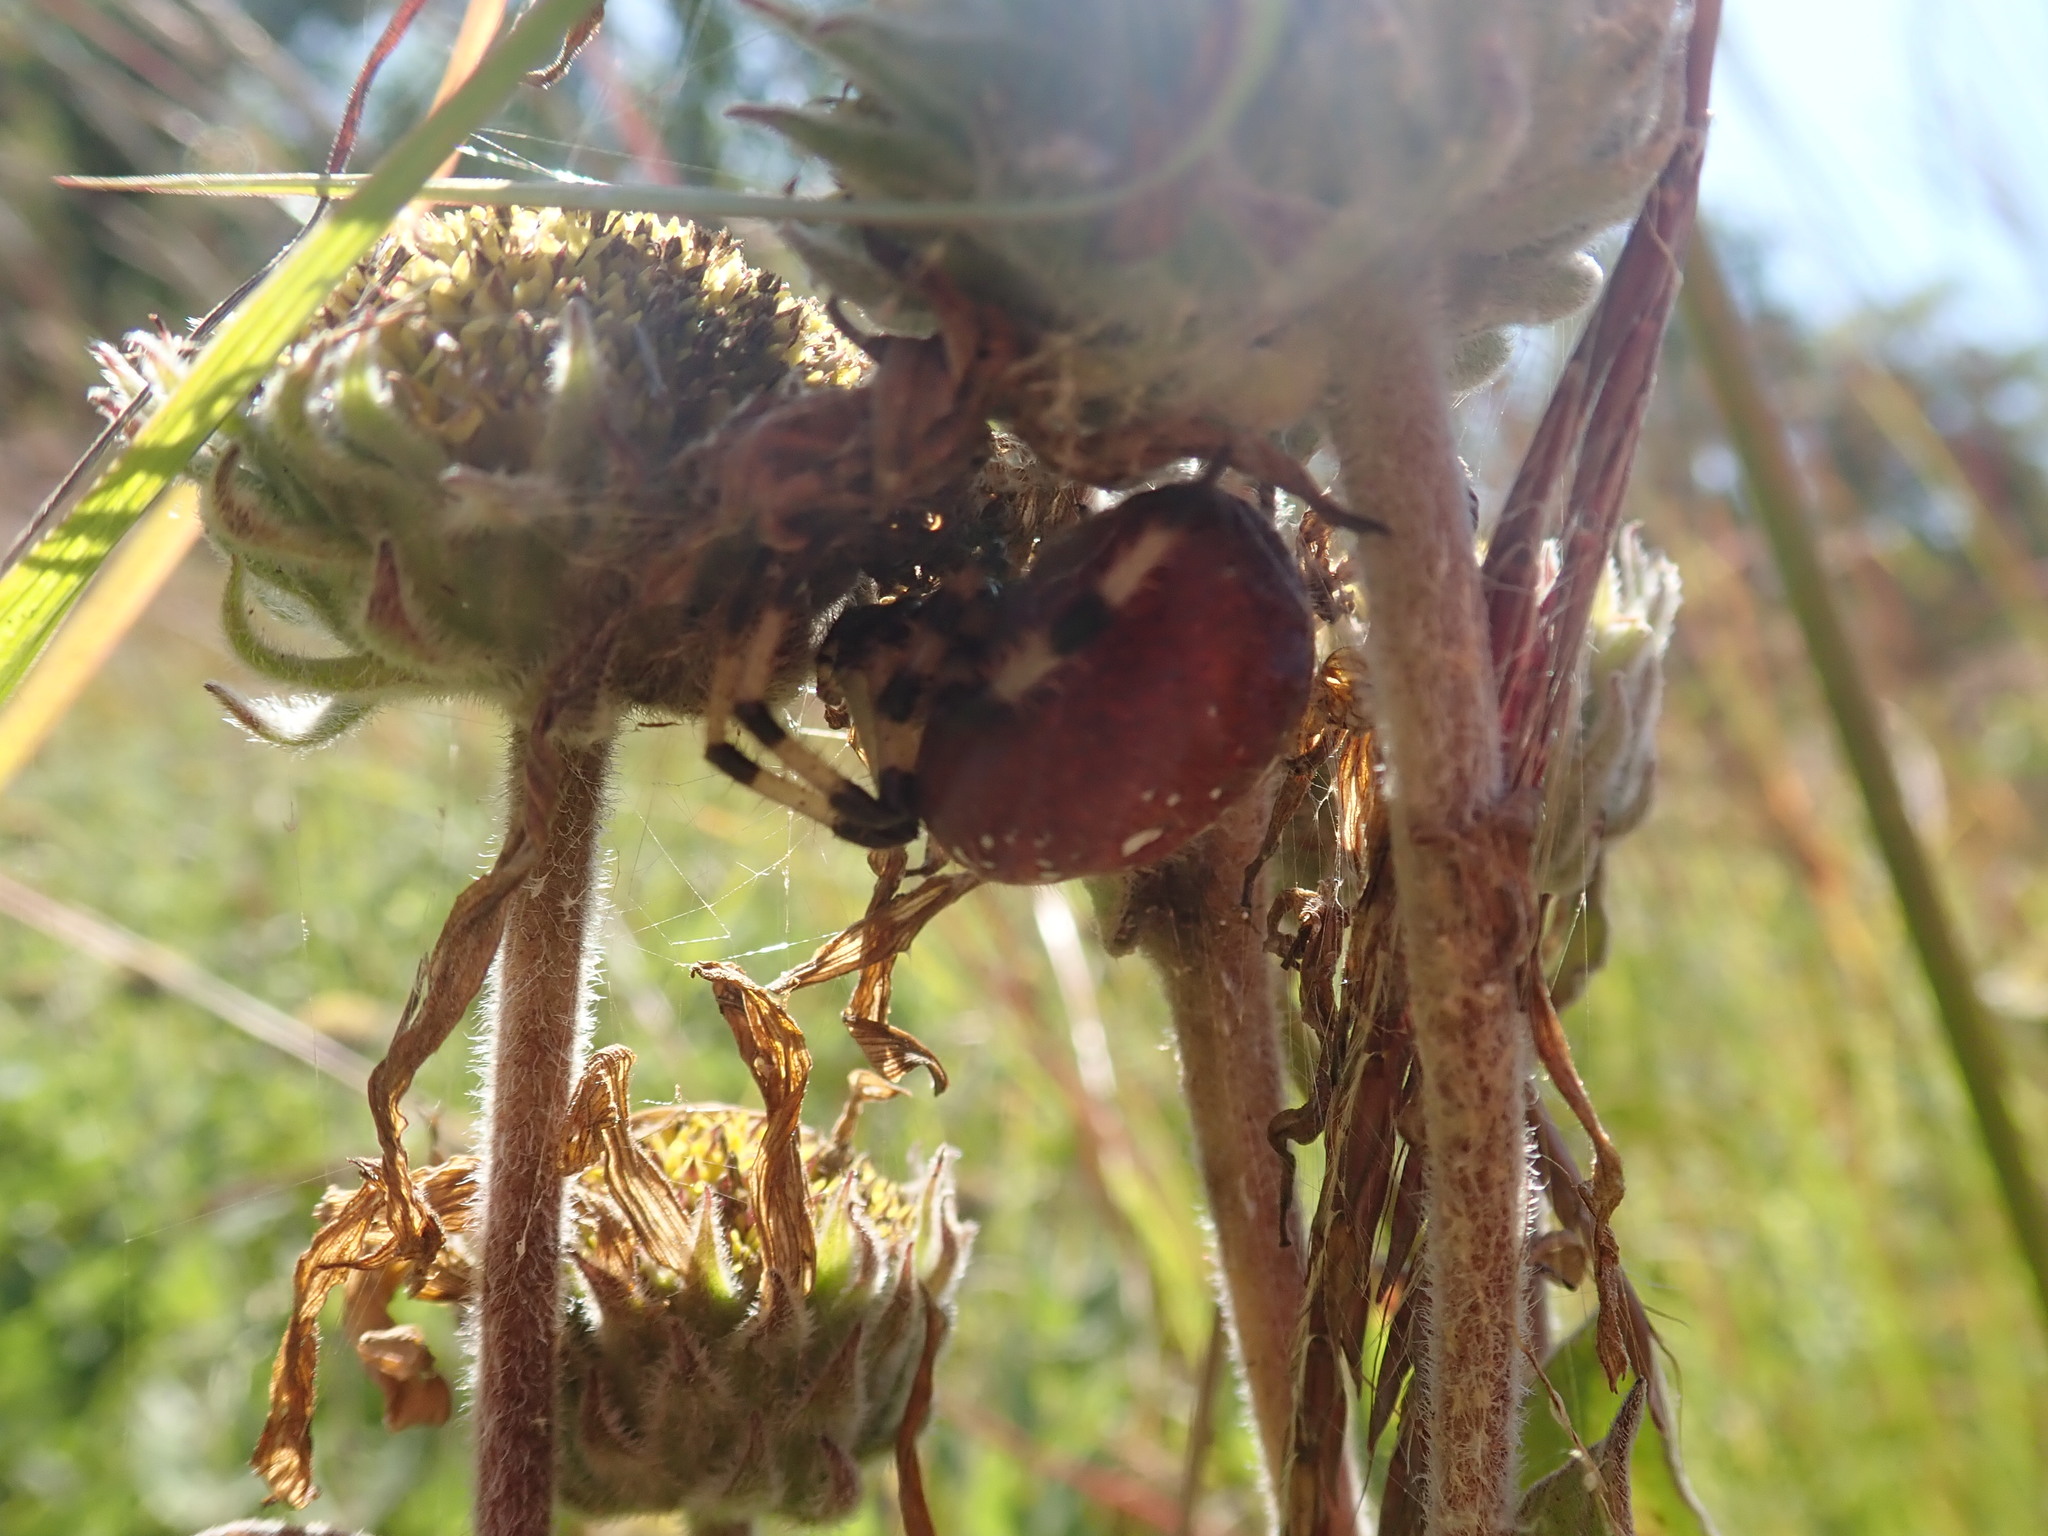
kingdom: Animalia
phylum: Arthropoda
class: Arachnida
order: Araneae
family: Araneidae
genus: Araneus
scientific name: Araneus trifolium
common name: Shamrock orbweaver
